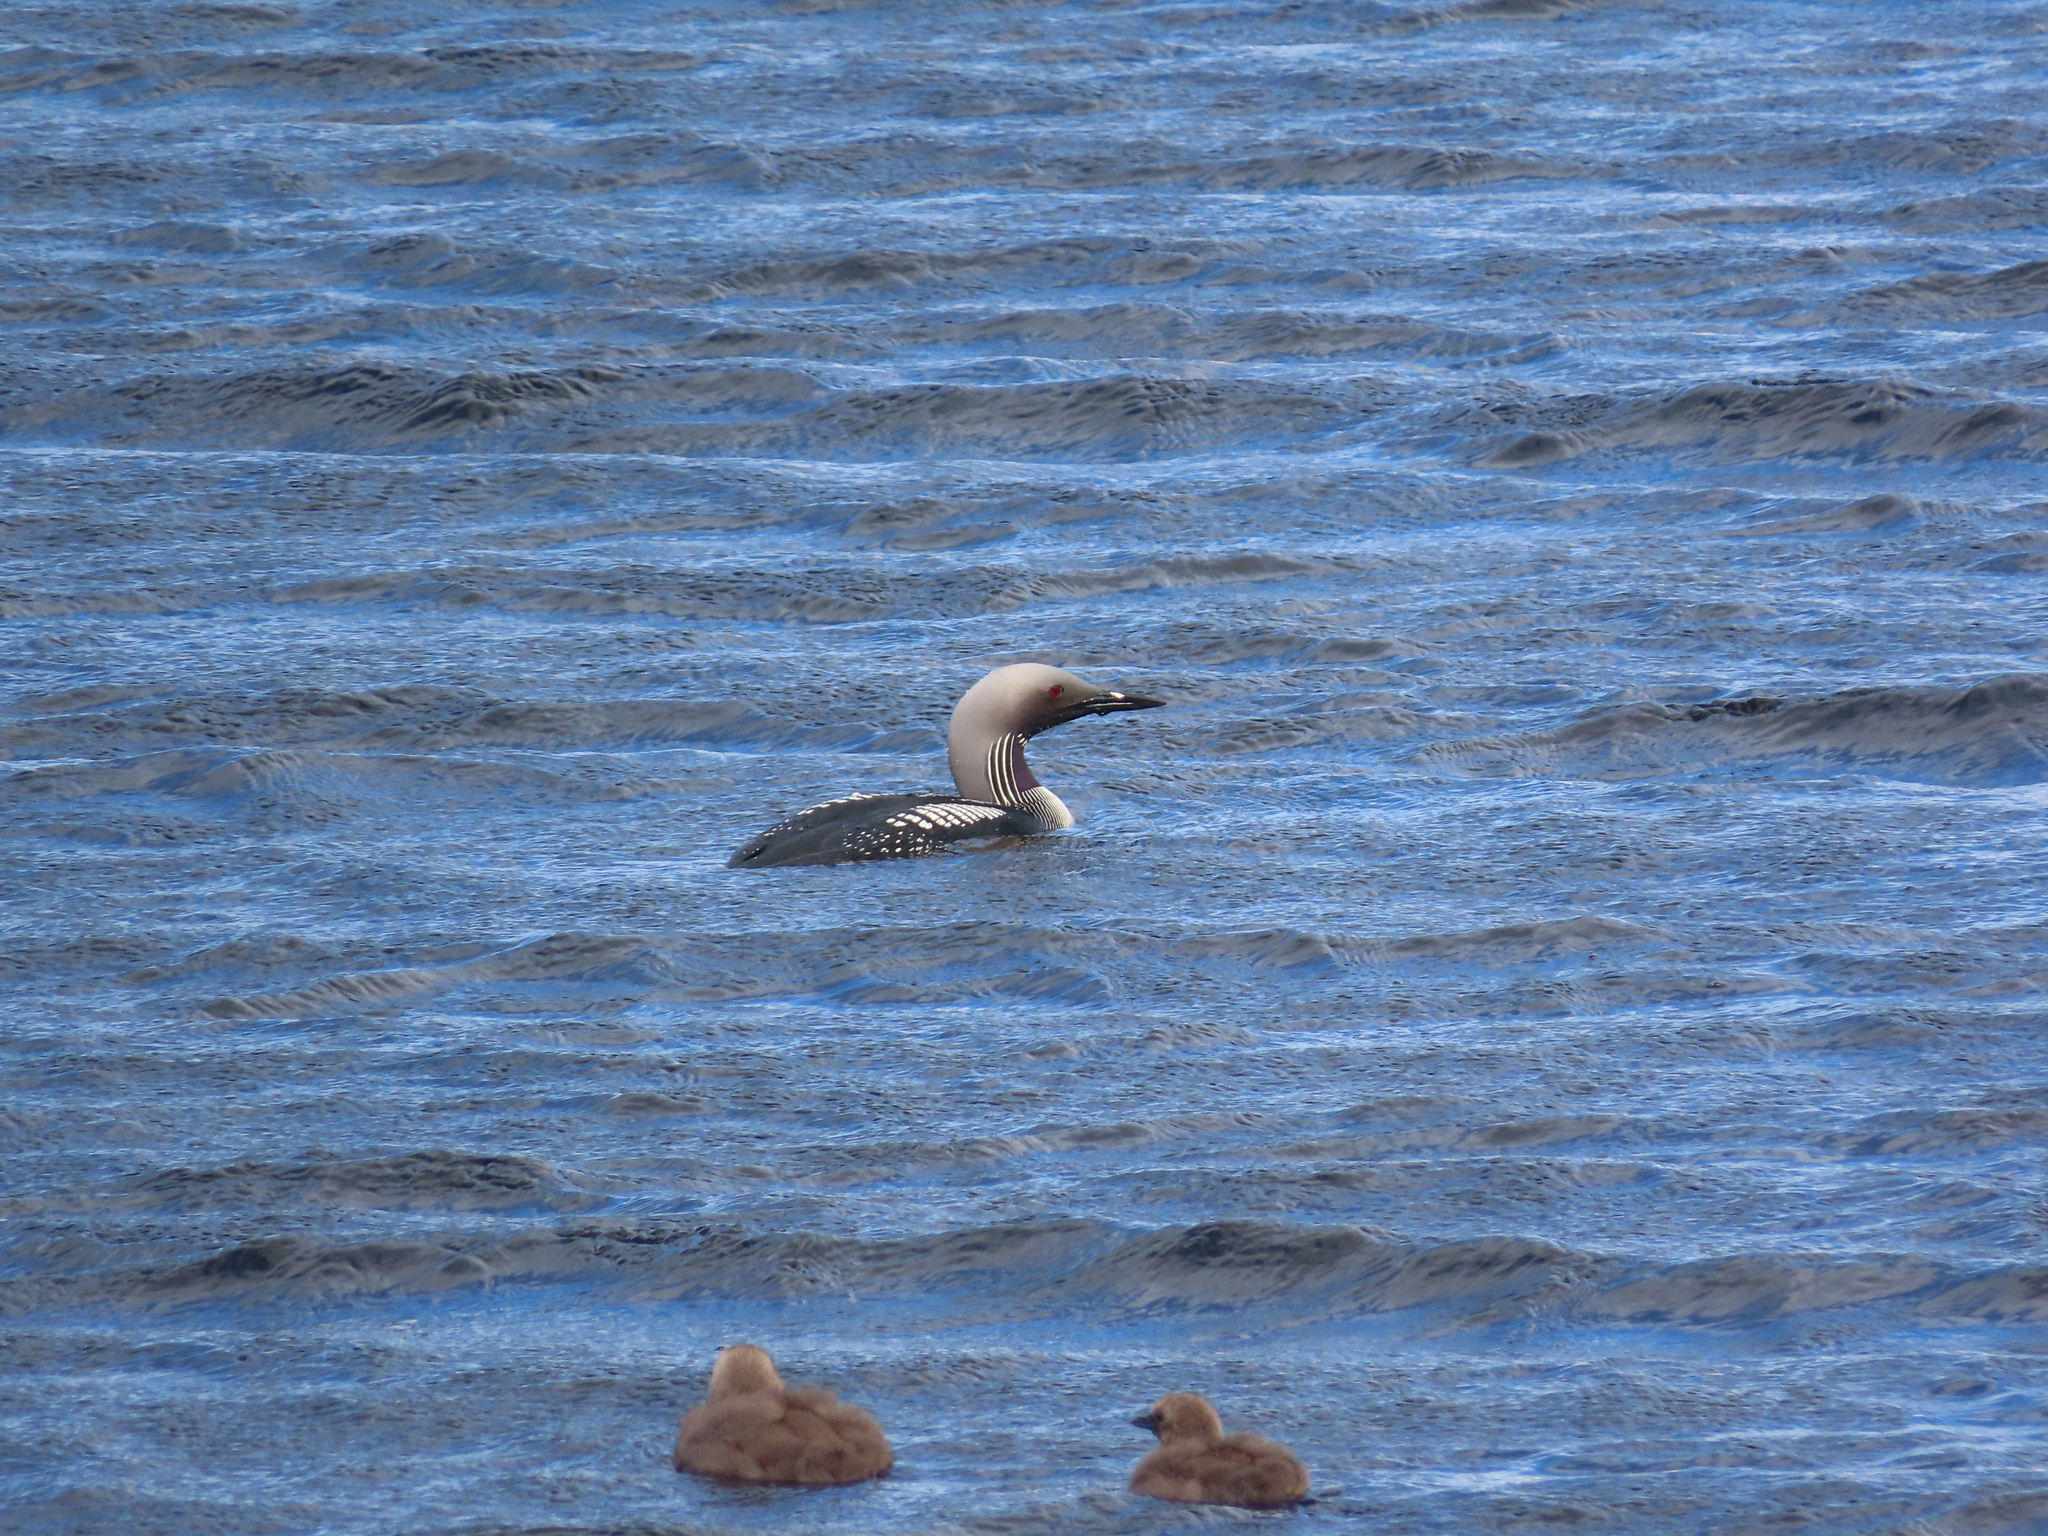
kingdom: Animalia
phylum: Chordata
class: Aves
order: Gaviiformes
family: Gaviidae
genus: Gavia
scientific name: Gavia arctica
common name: Black-throated loon
